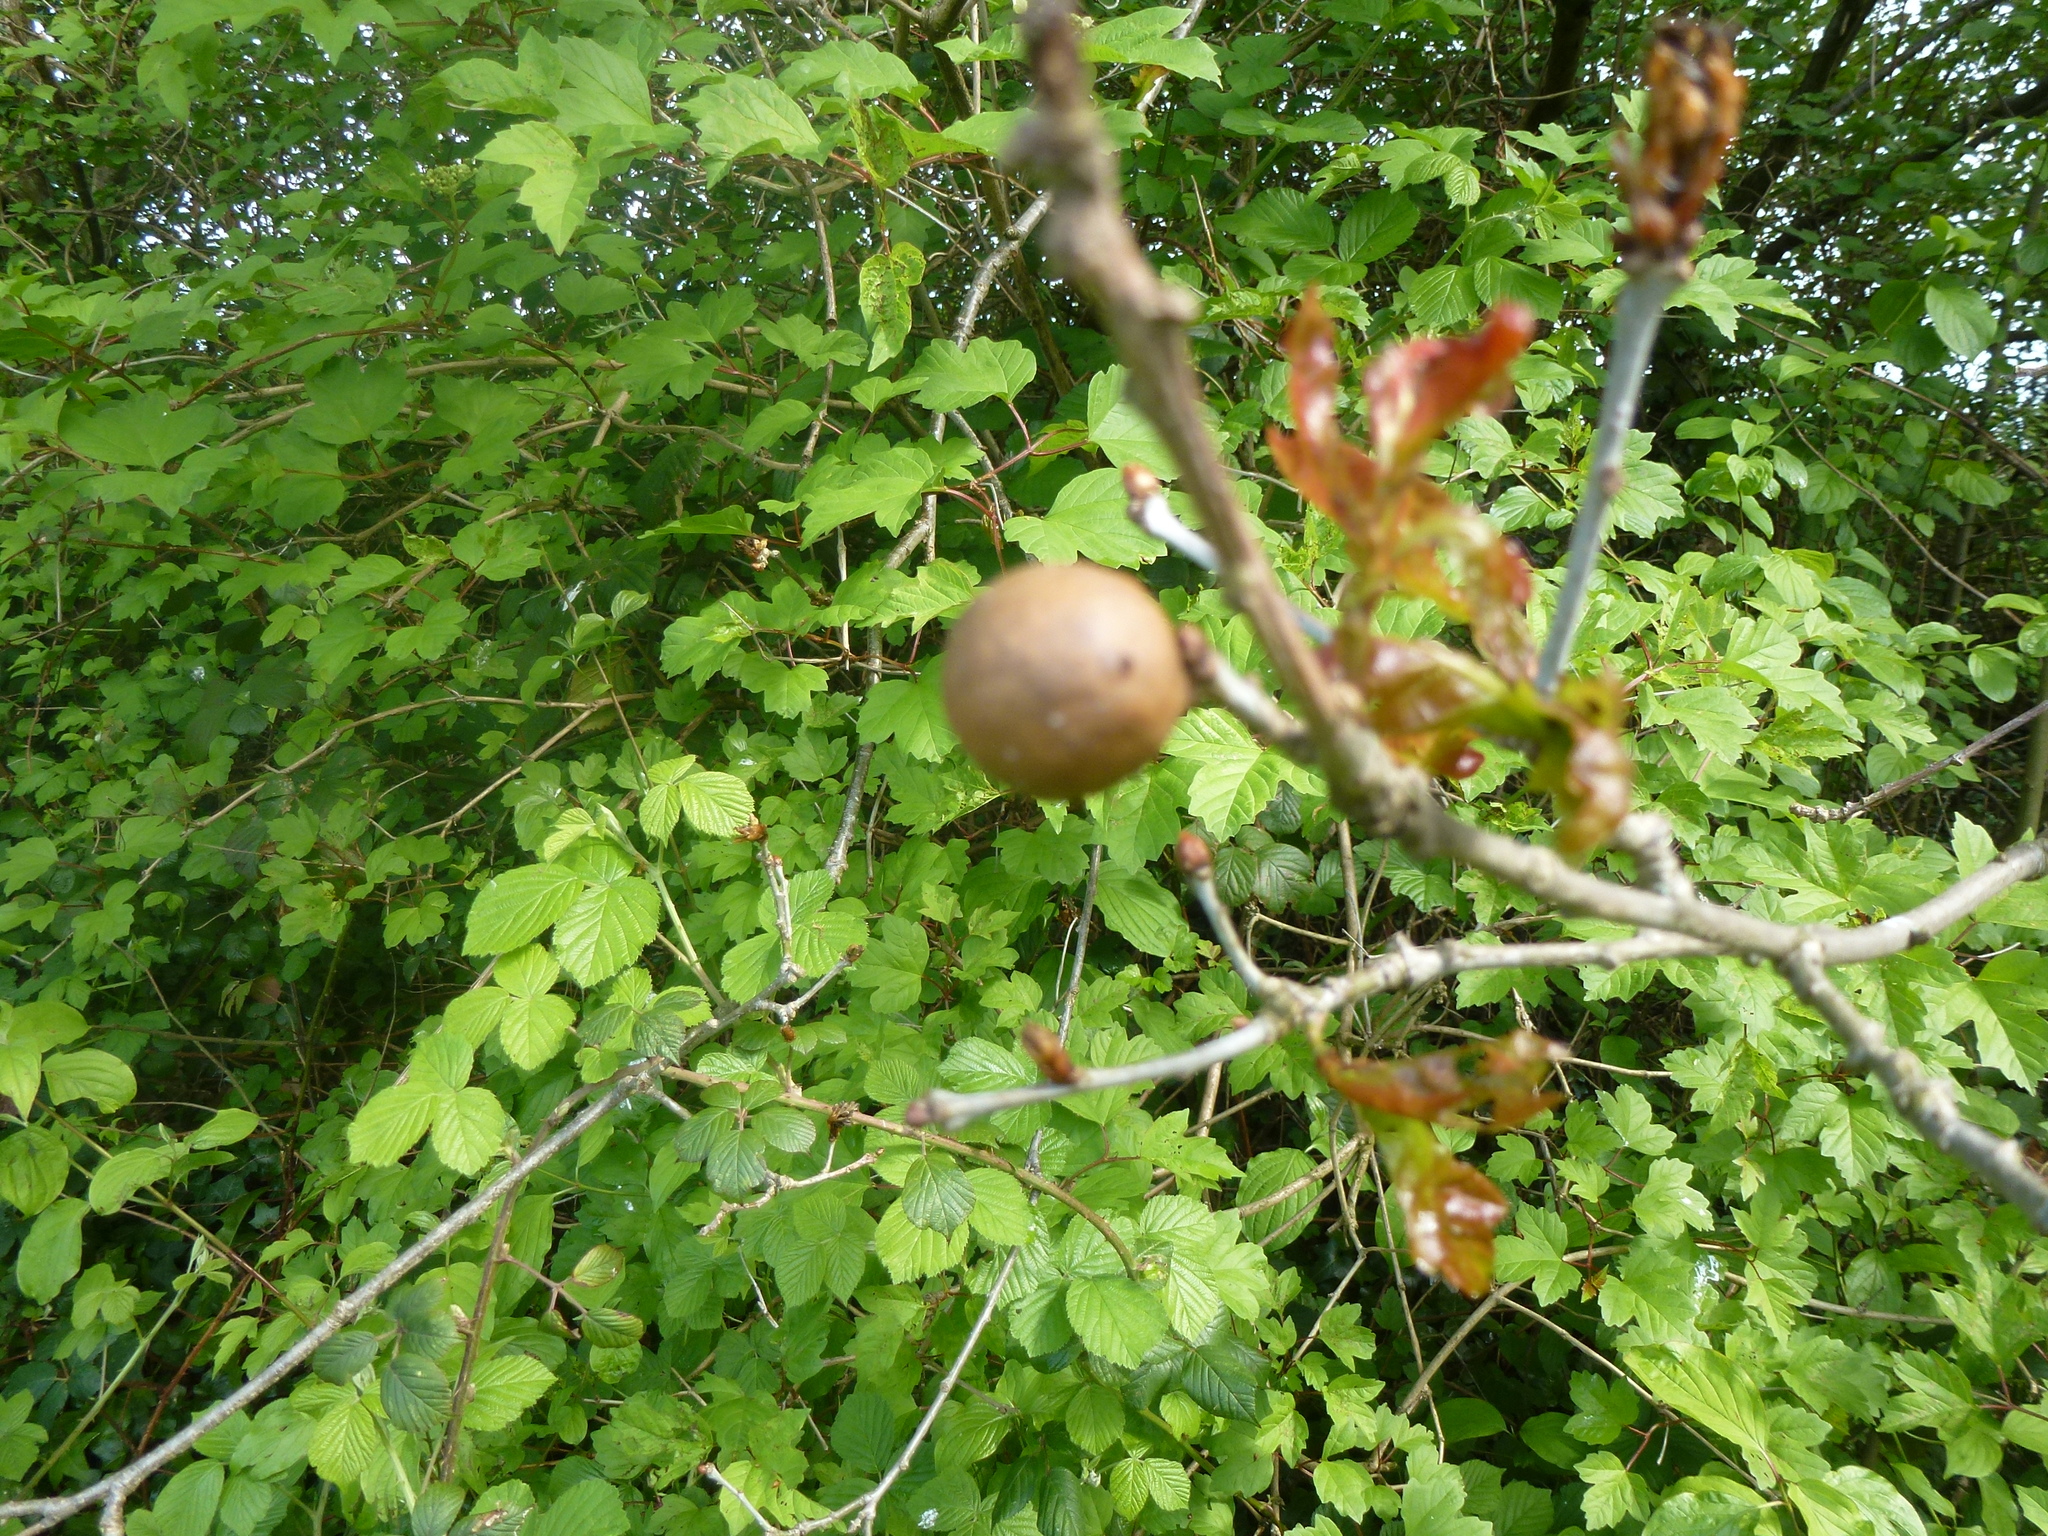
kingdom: Animalia
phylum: Arthropoda
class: Insecta
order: Hymenoptera
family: Cynipidae
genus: Andricus
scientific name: Andricus kollari
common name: Marble gall
